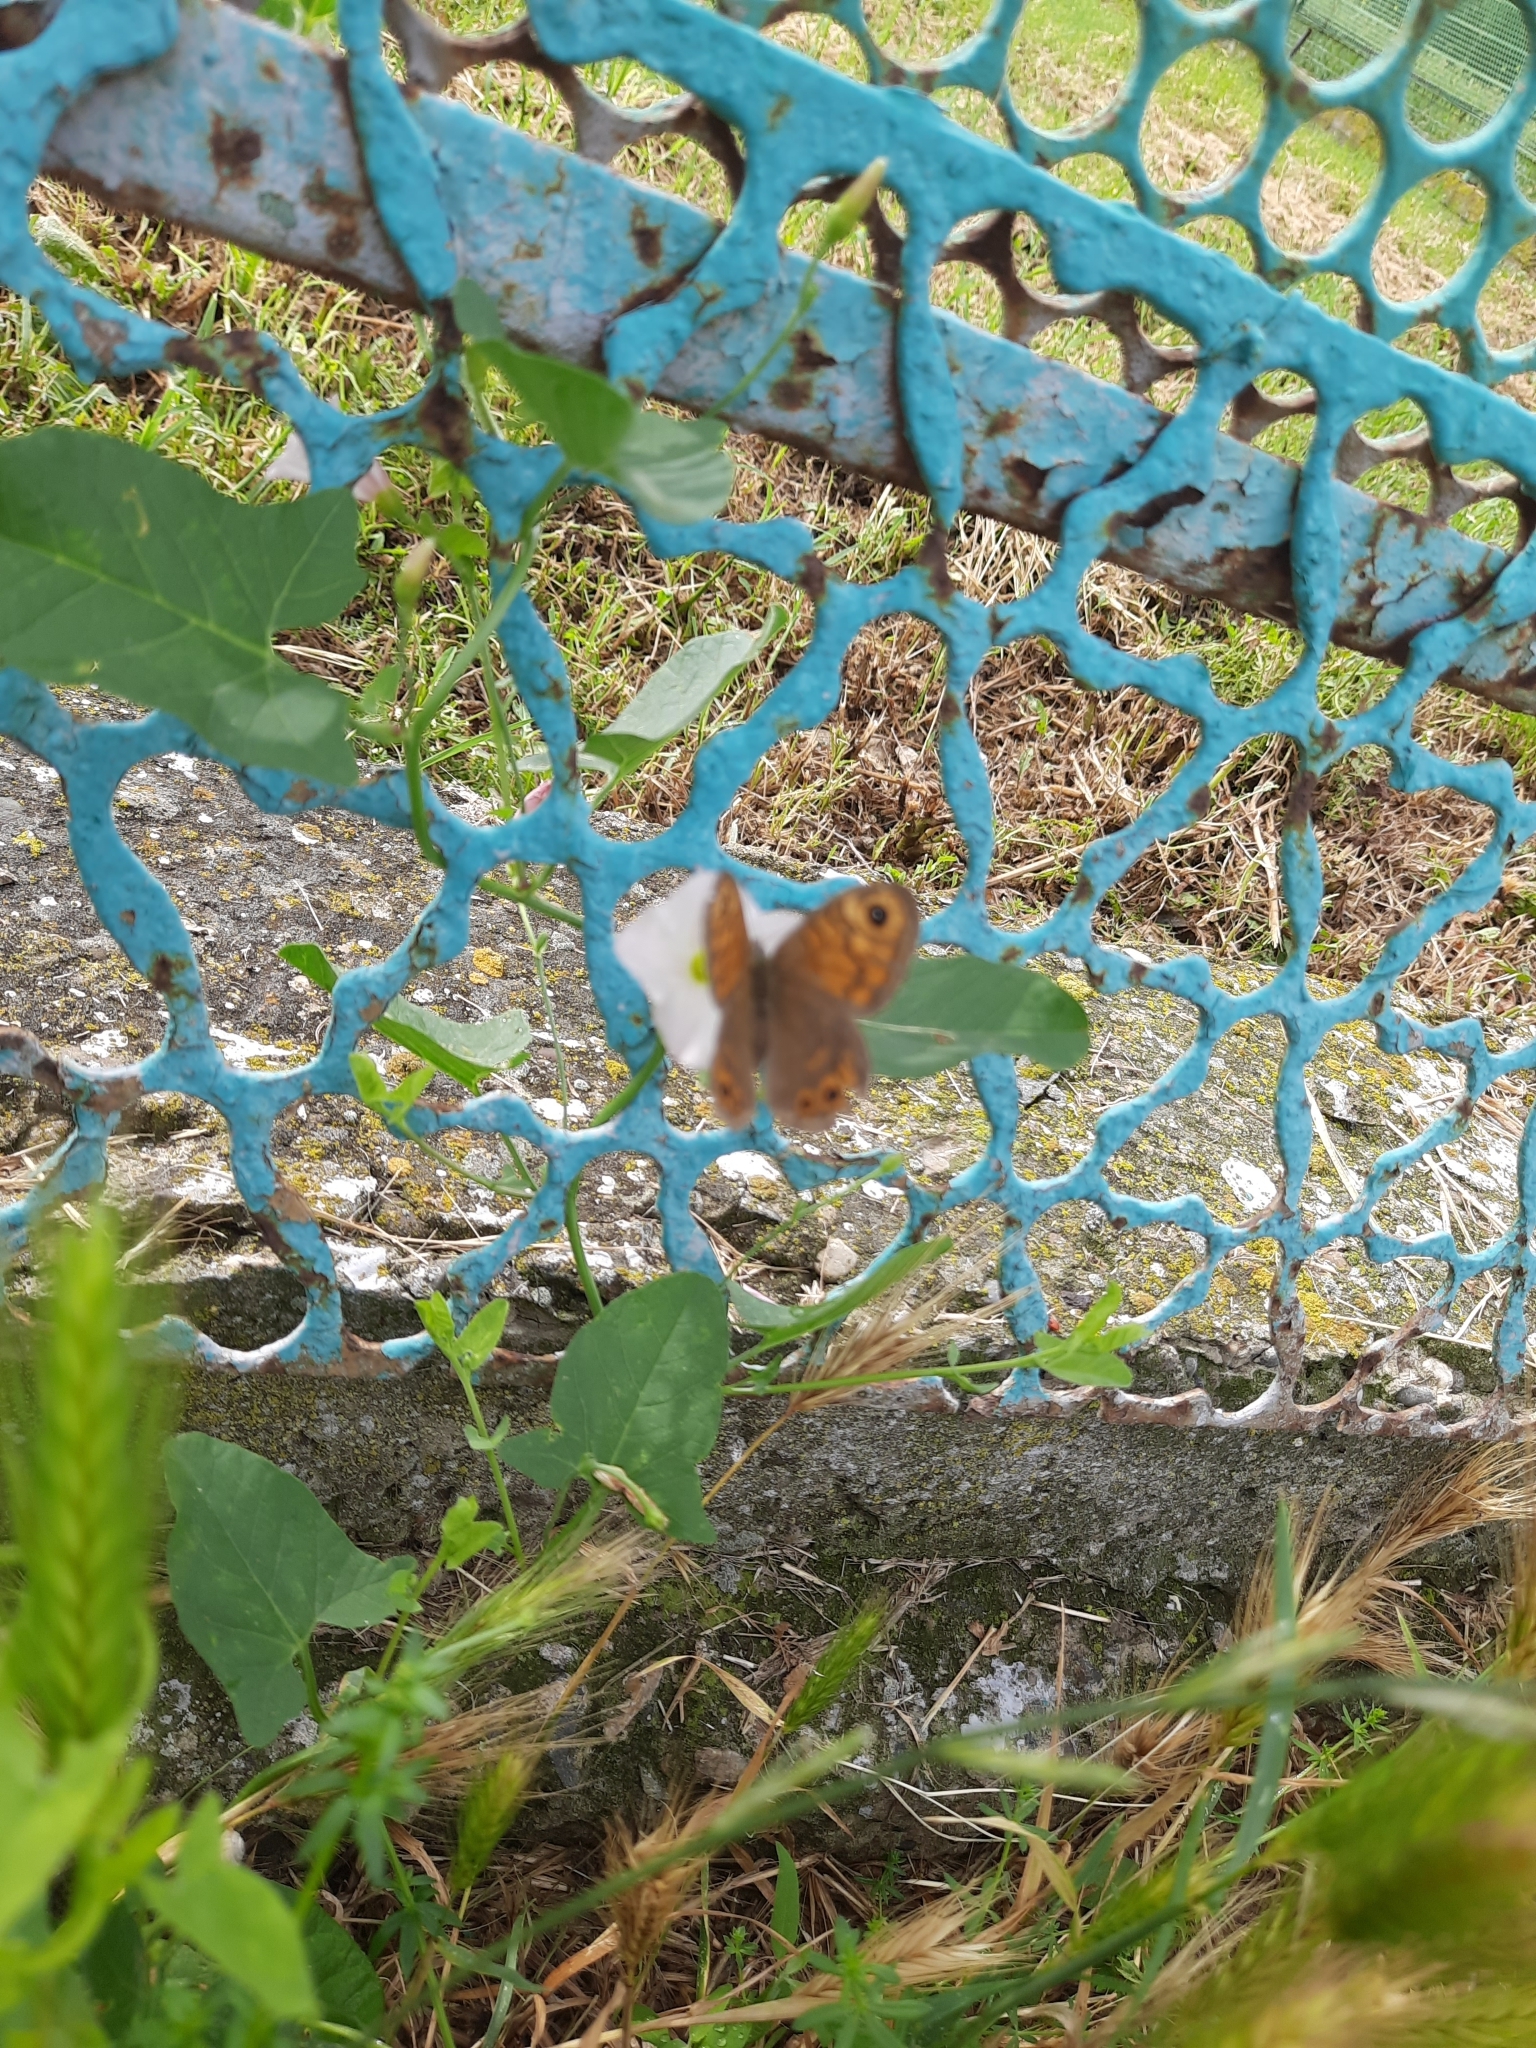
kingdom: Animalia
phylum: Arthropoda
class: Insecta
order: Lepidoptera
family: Nymphalidae
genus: Pararge
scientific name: Pararge Lasiommata megera
